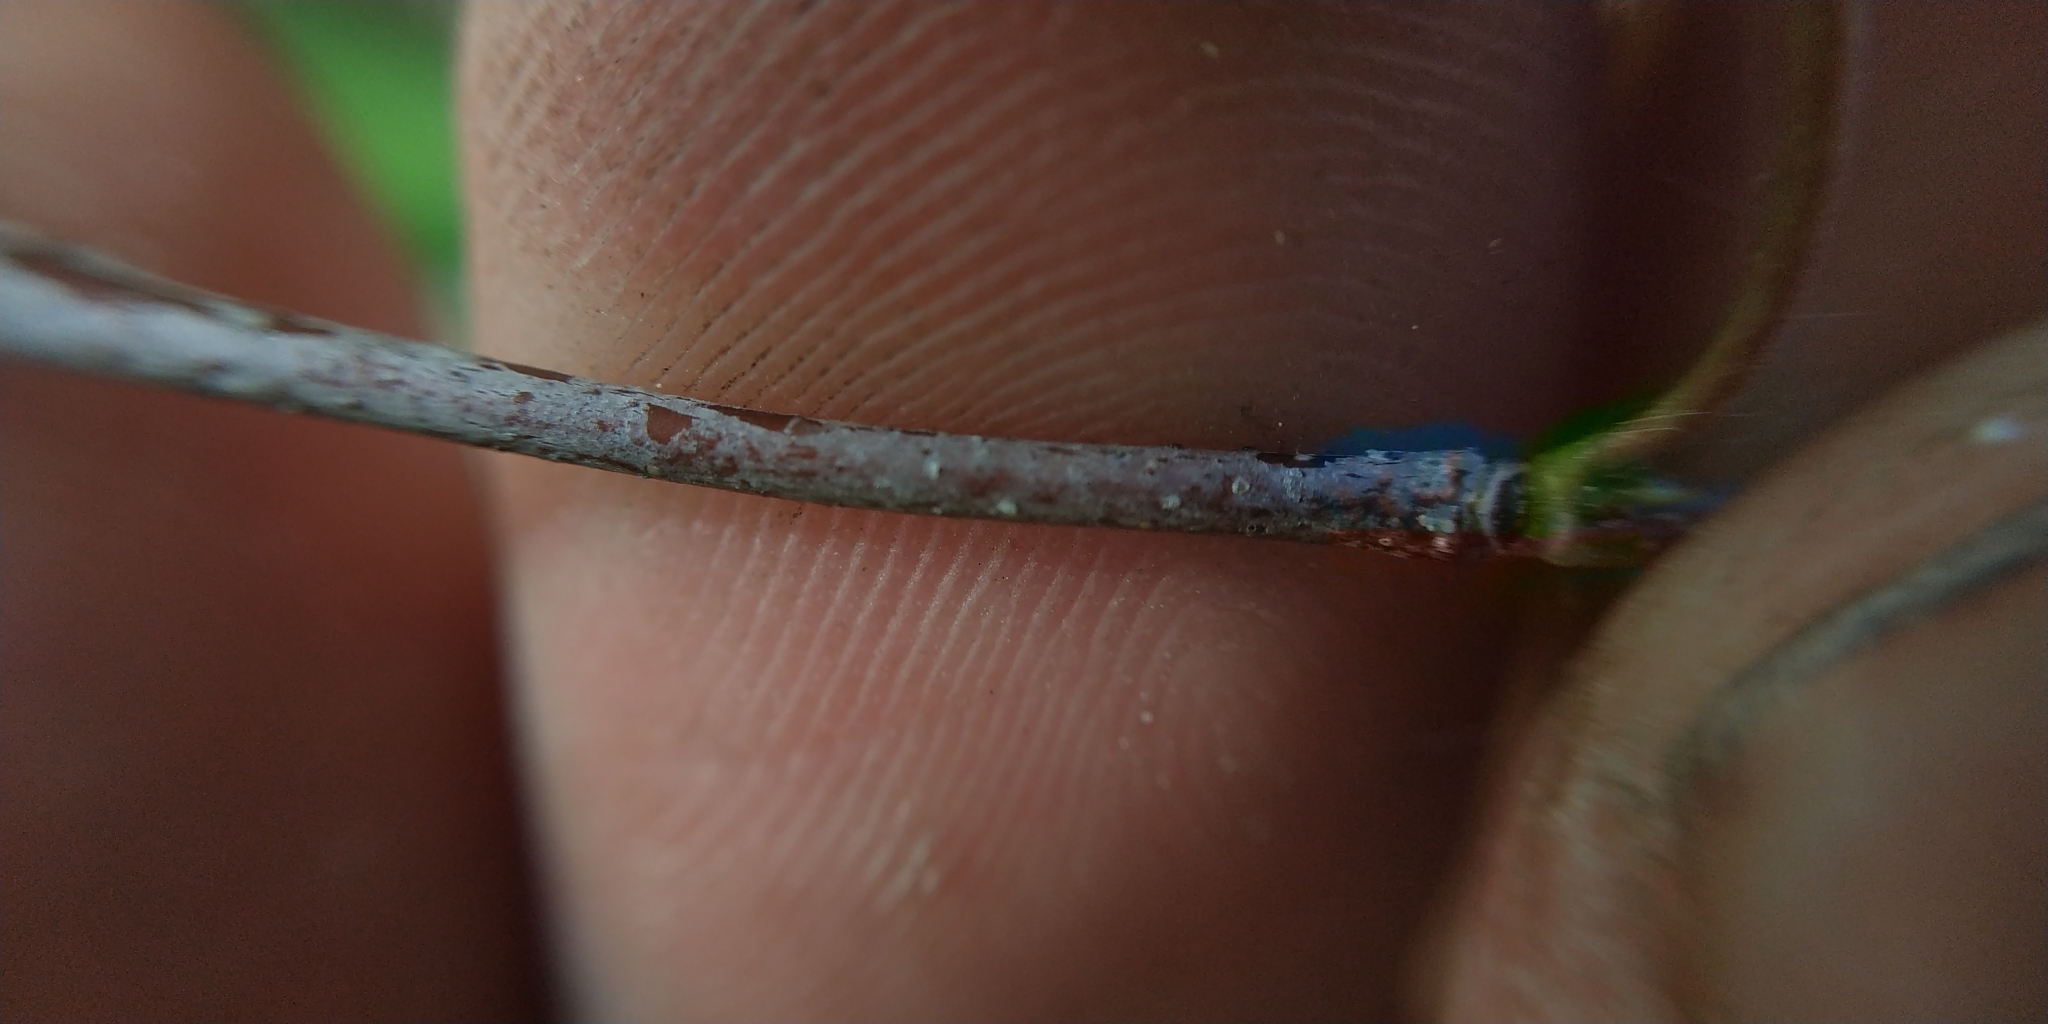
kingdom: Plantae
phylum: Tracheophyta
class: Magnoliopsida
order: Fagales
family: Betulaceae
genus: Betula
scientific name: Betula pendula
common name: Silver birch
